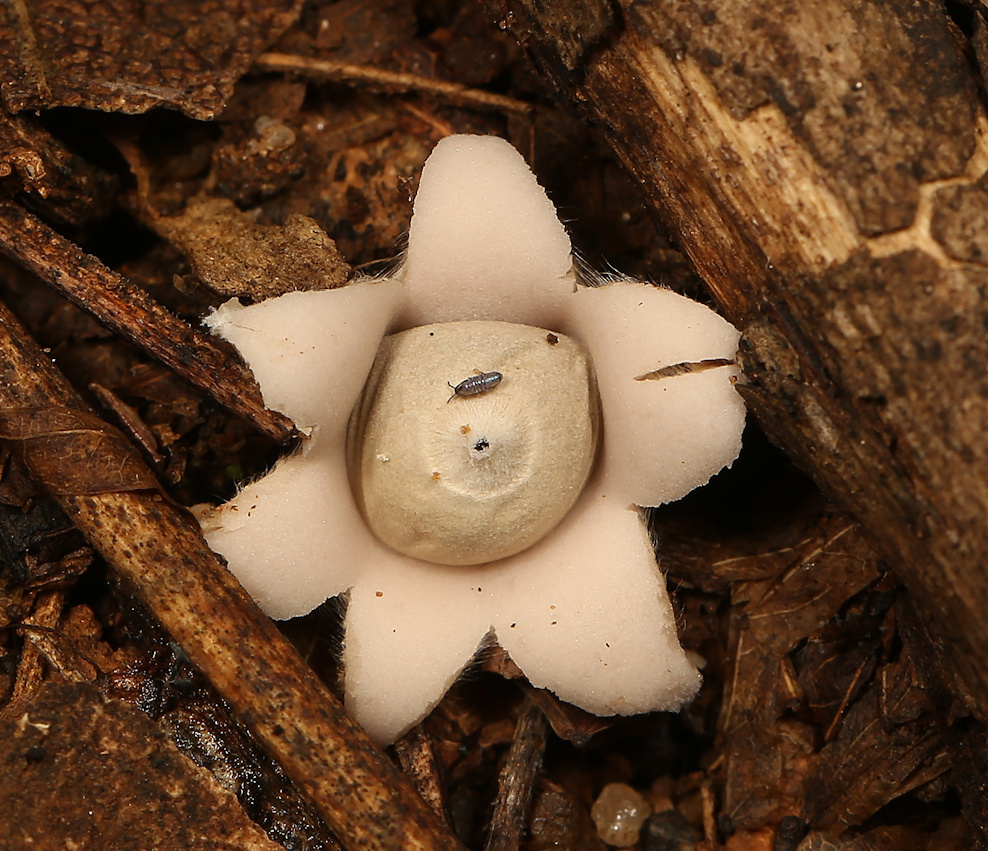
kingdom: Fungi
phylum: Basidiomycota
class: Agaricomycetes
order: Geastrales
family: Geastraceae
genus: Geastrum
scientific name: Geastrum saccatum
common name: Rounded earthstar
